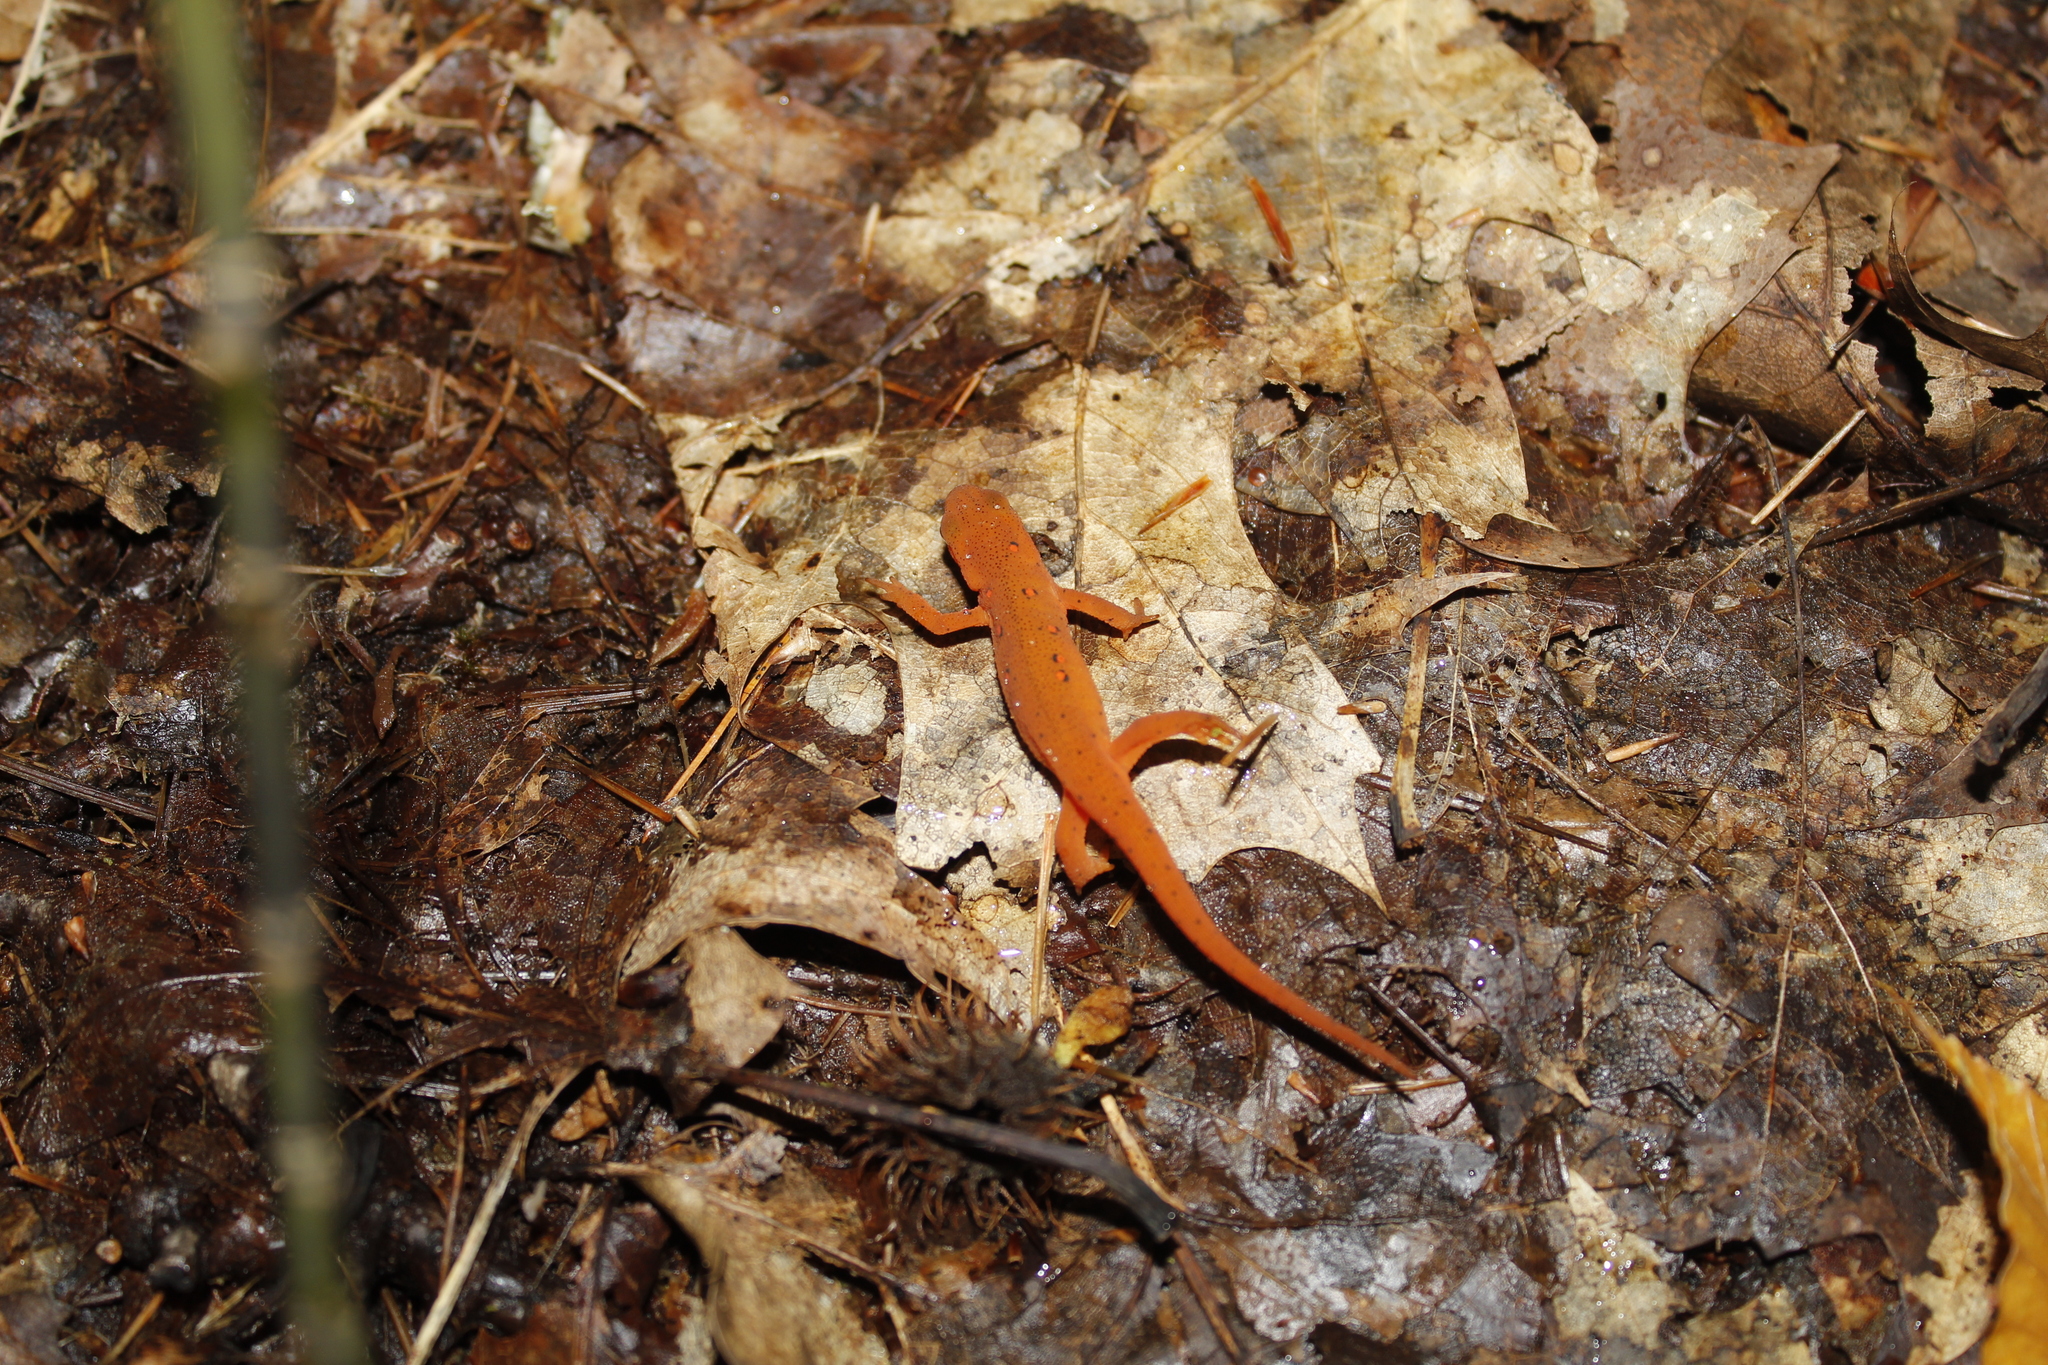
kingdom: Animalia
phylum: Chordata
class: Amphibia
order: Caudata
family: Salamandridae
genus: Notophthalmus
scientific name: Notophthalmus viridescens
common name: Eastern newt
